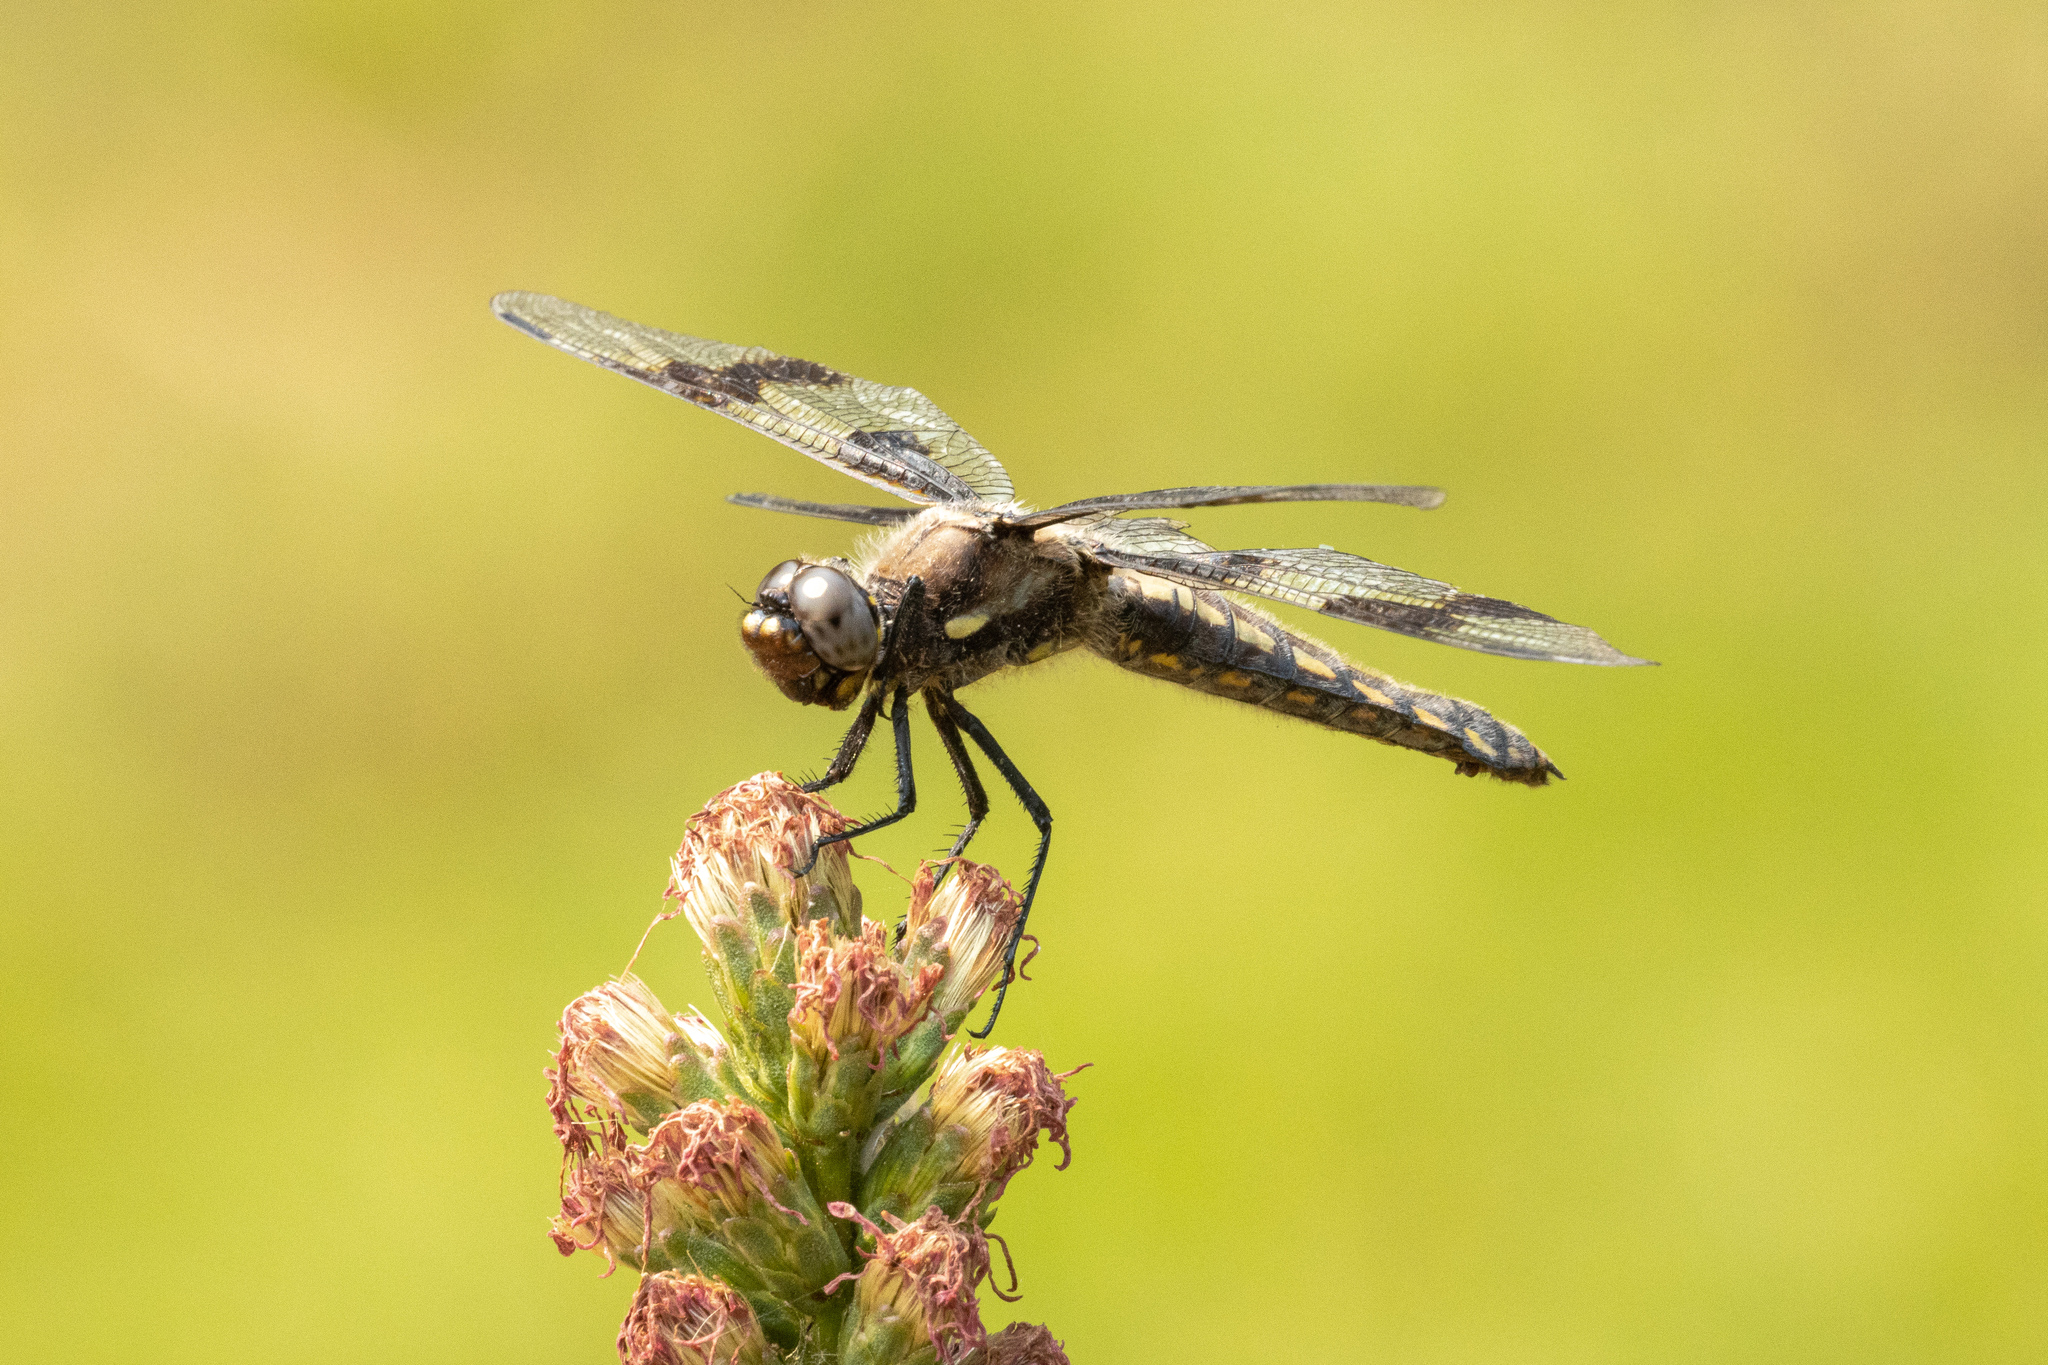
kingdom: Animalia
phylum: Arthropoda
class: Insecta
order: Odonata
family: Libellulidae
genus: Libellula
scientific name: Libellula forensis
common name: Eight-spotted skimmer
